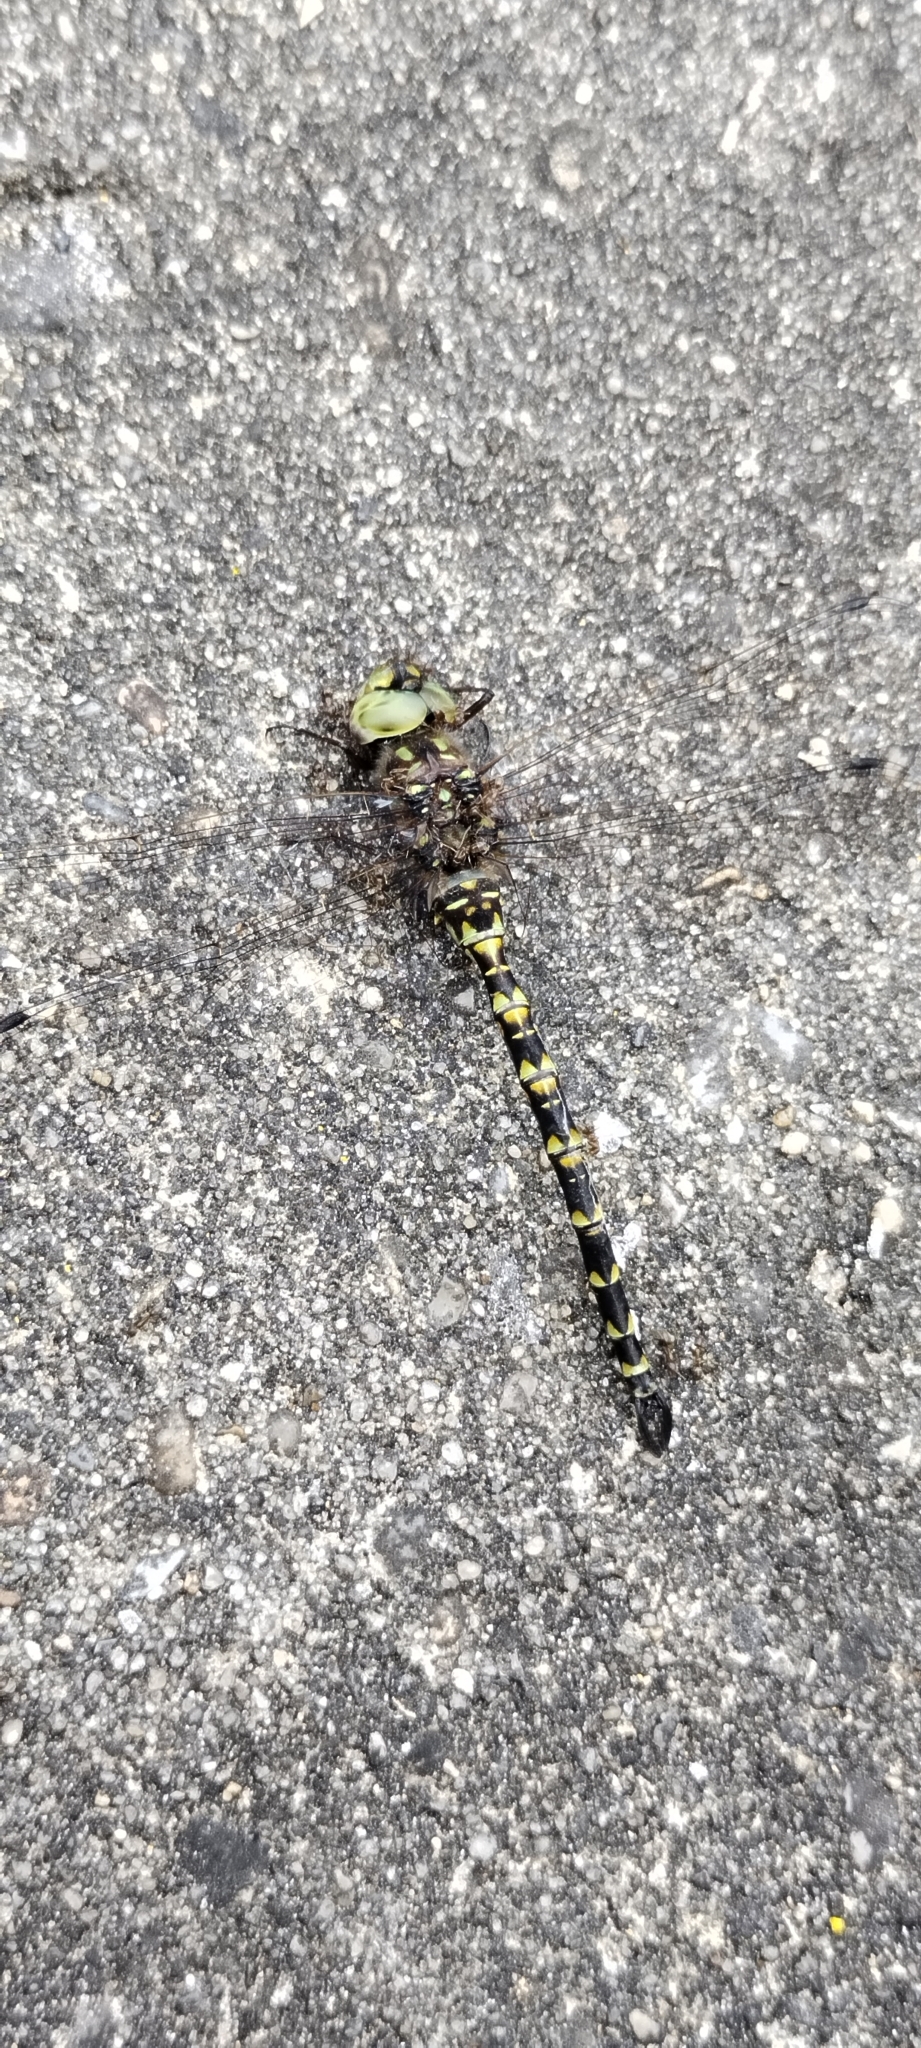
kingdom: Animalia
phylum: Arthropoda
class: Insecta
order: Odonata
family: Aeshnidae
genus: Gomphaeschna
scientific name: Gomphaeschna furcillata
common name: Harlequin darner
